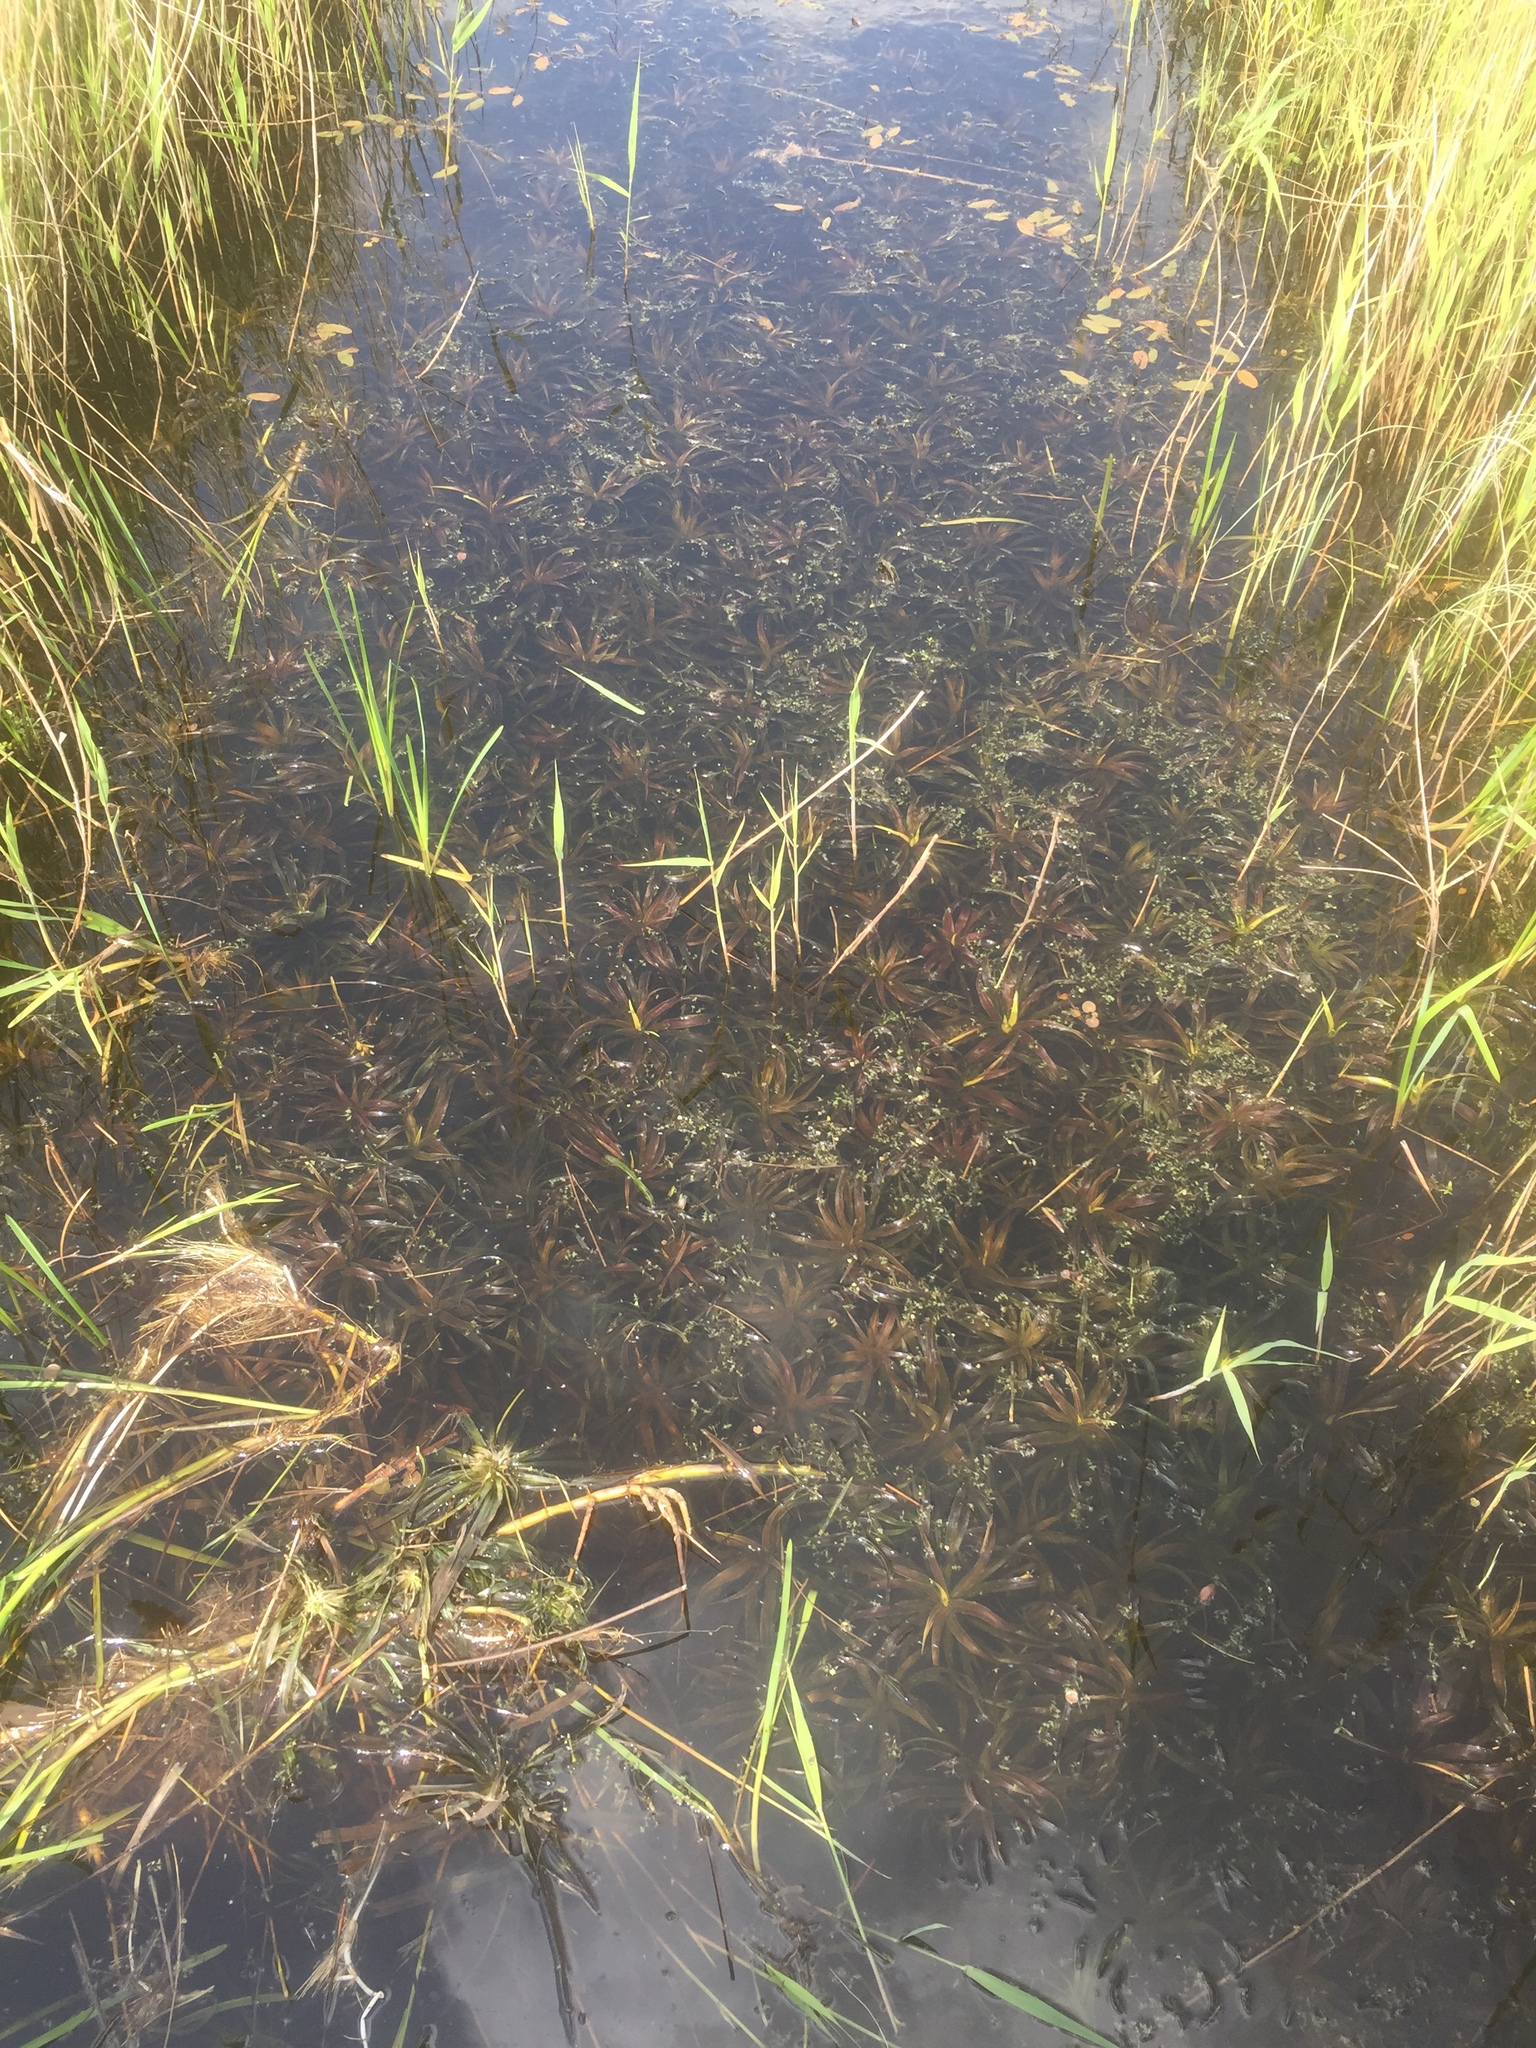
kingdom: Plantae
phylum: Tracheophyta
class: Liliopsida
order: Alismatales
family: Hydrocharitaceae
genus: Stratiotes
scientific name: Stratiotes aloides
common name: Water-soldier
